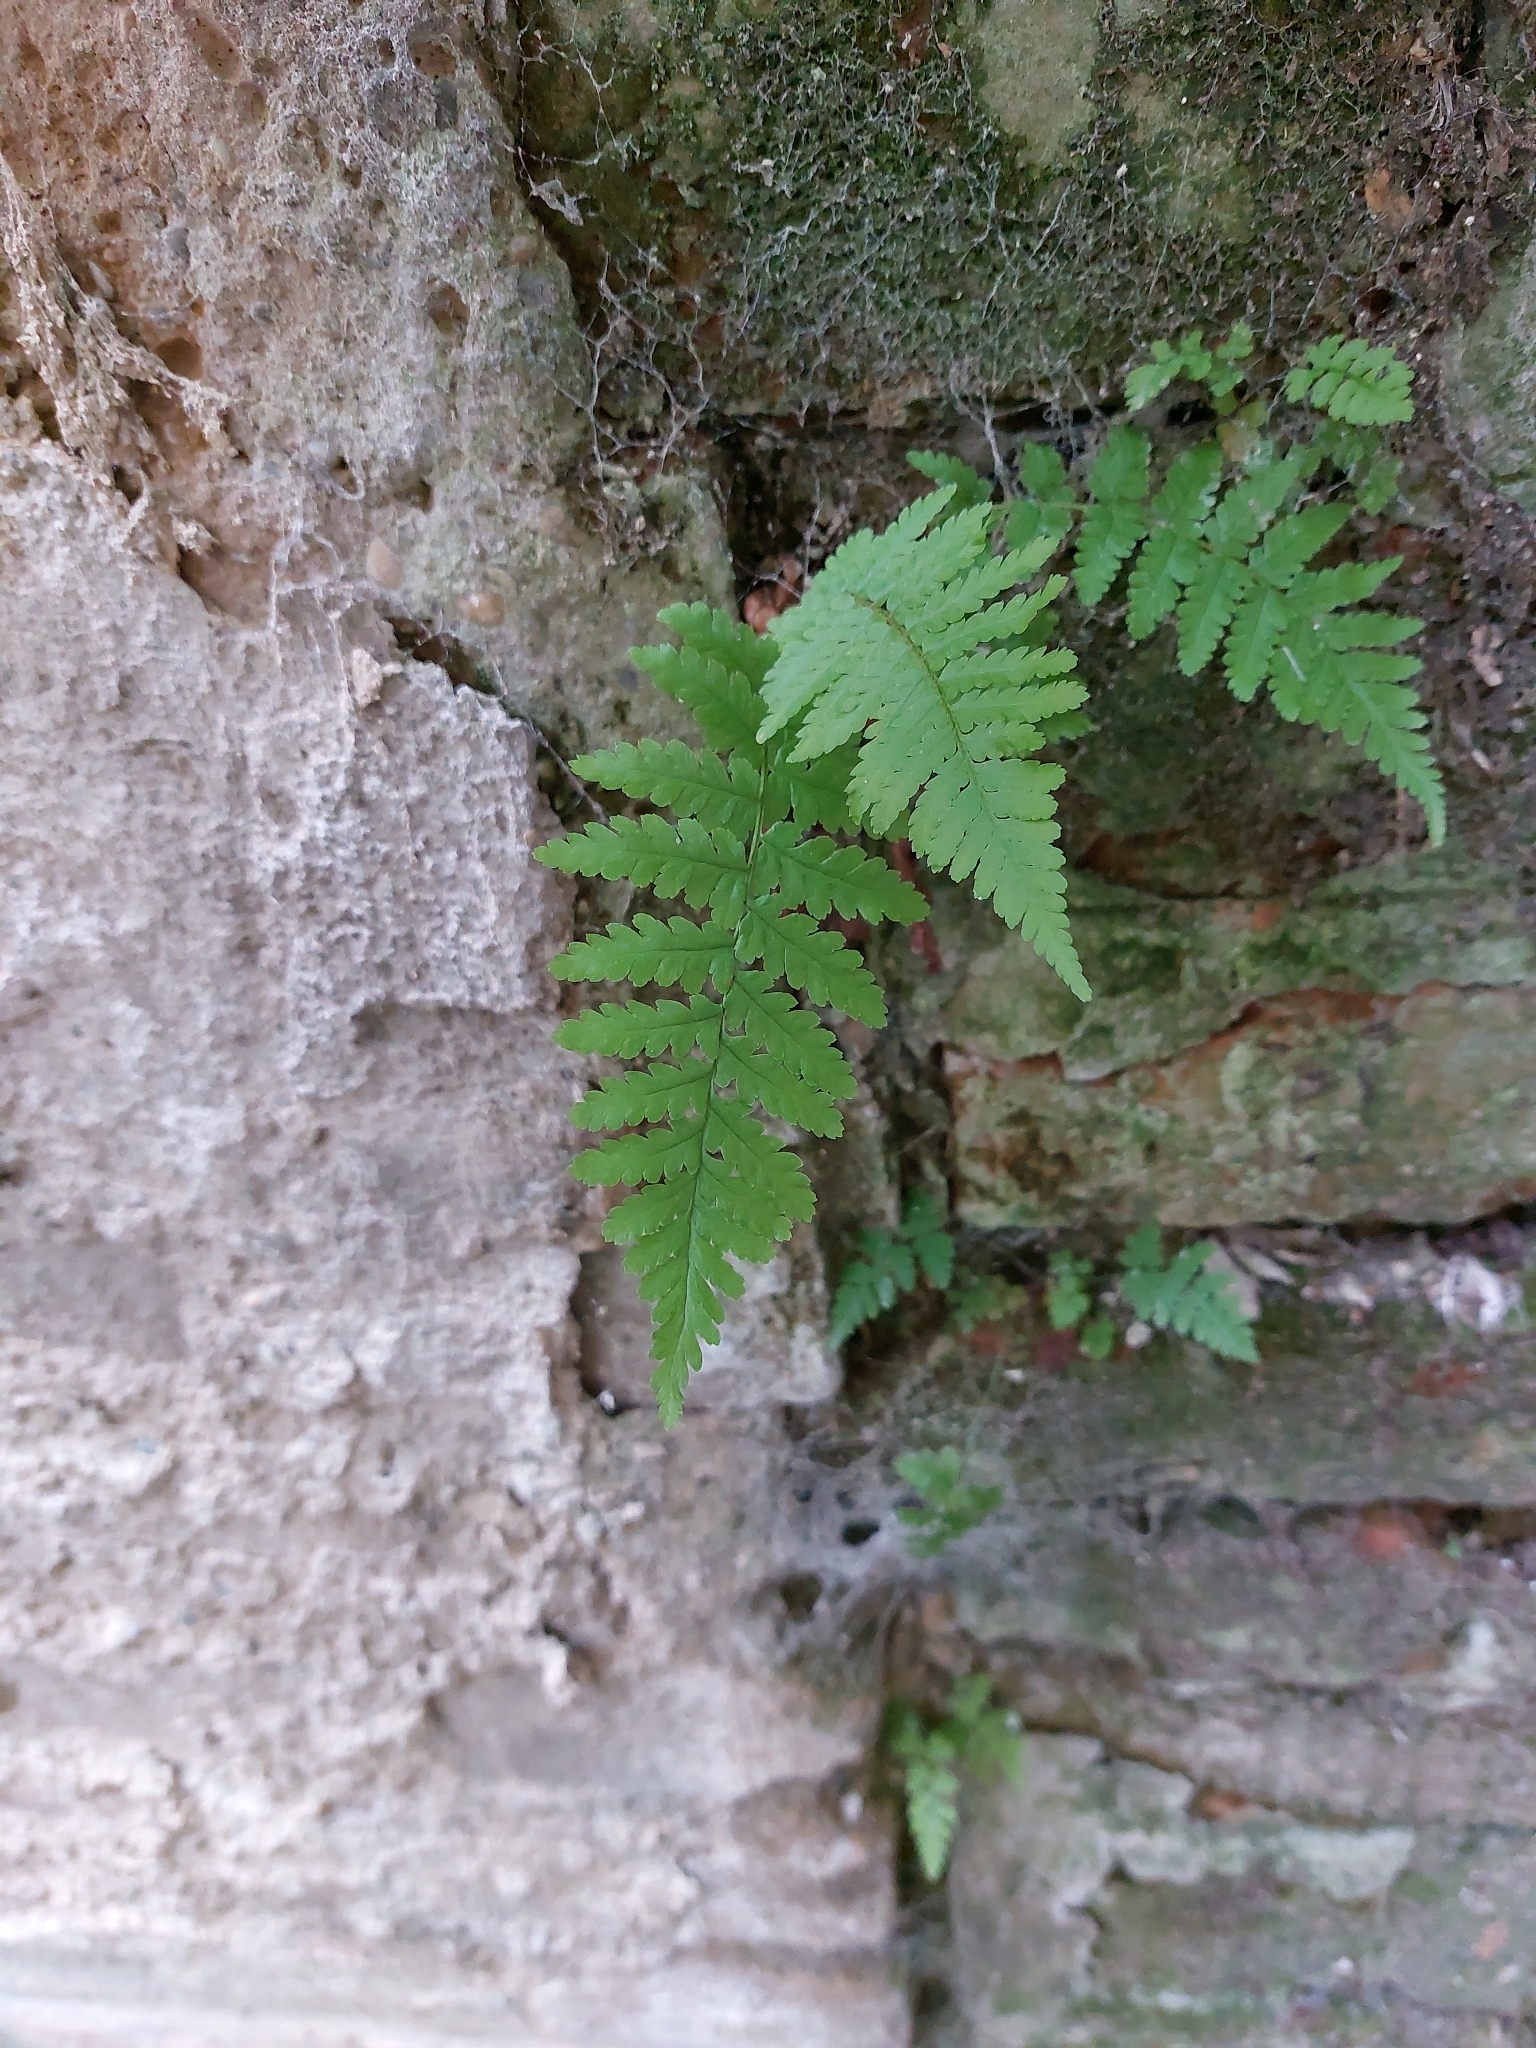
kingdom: Plantae
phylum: Tracheophyta
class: Polypodiopsida
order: Polypodiales
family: Dryopteridaceae
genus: Dryopteris
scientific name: Dryopteris filix-mas
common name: Male fern
